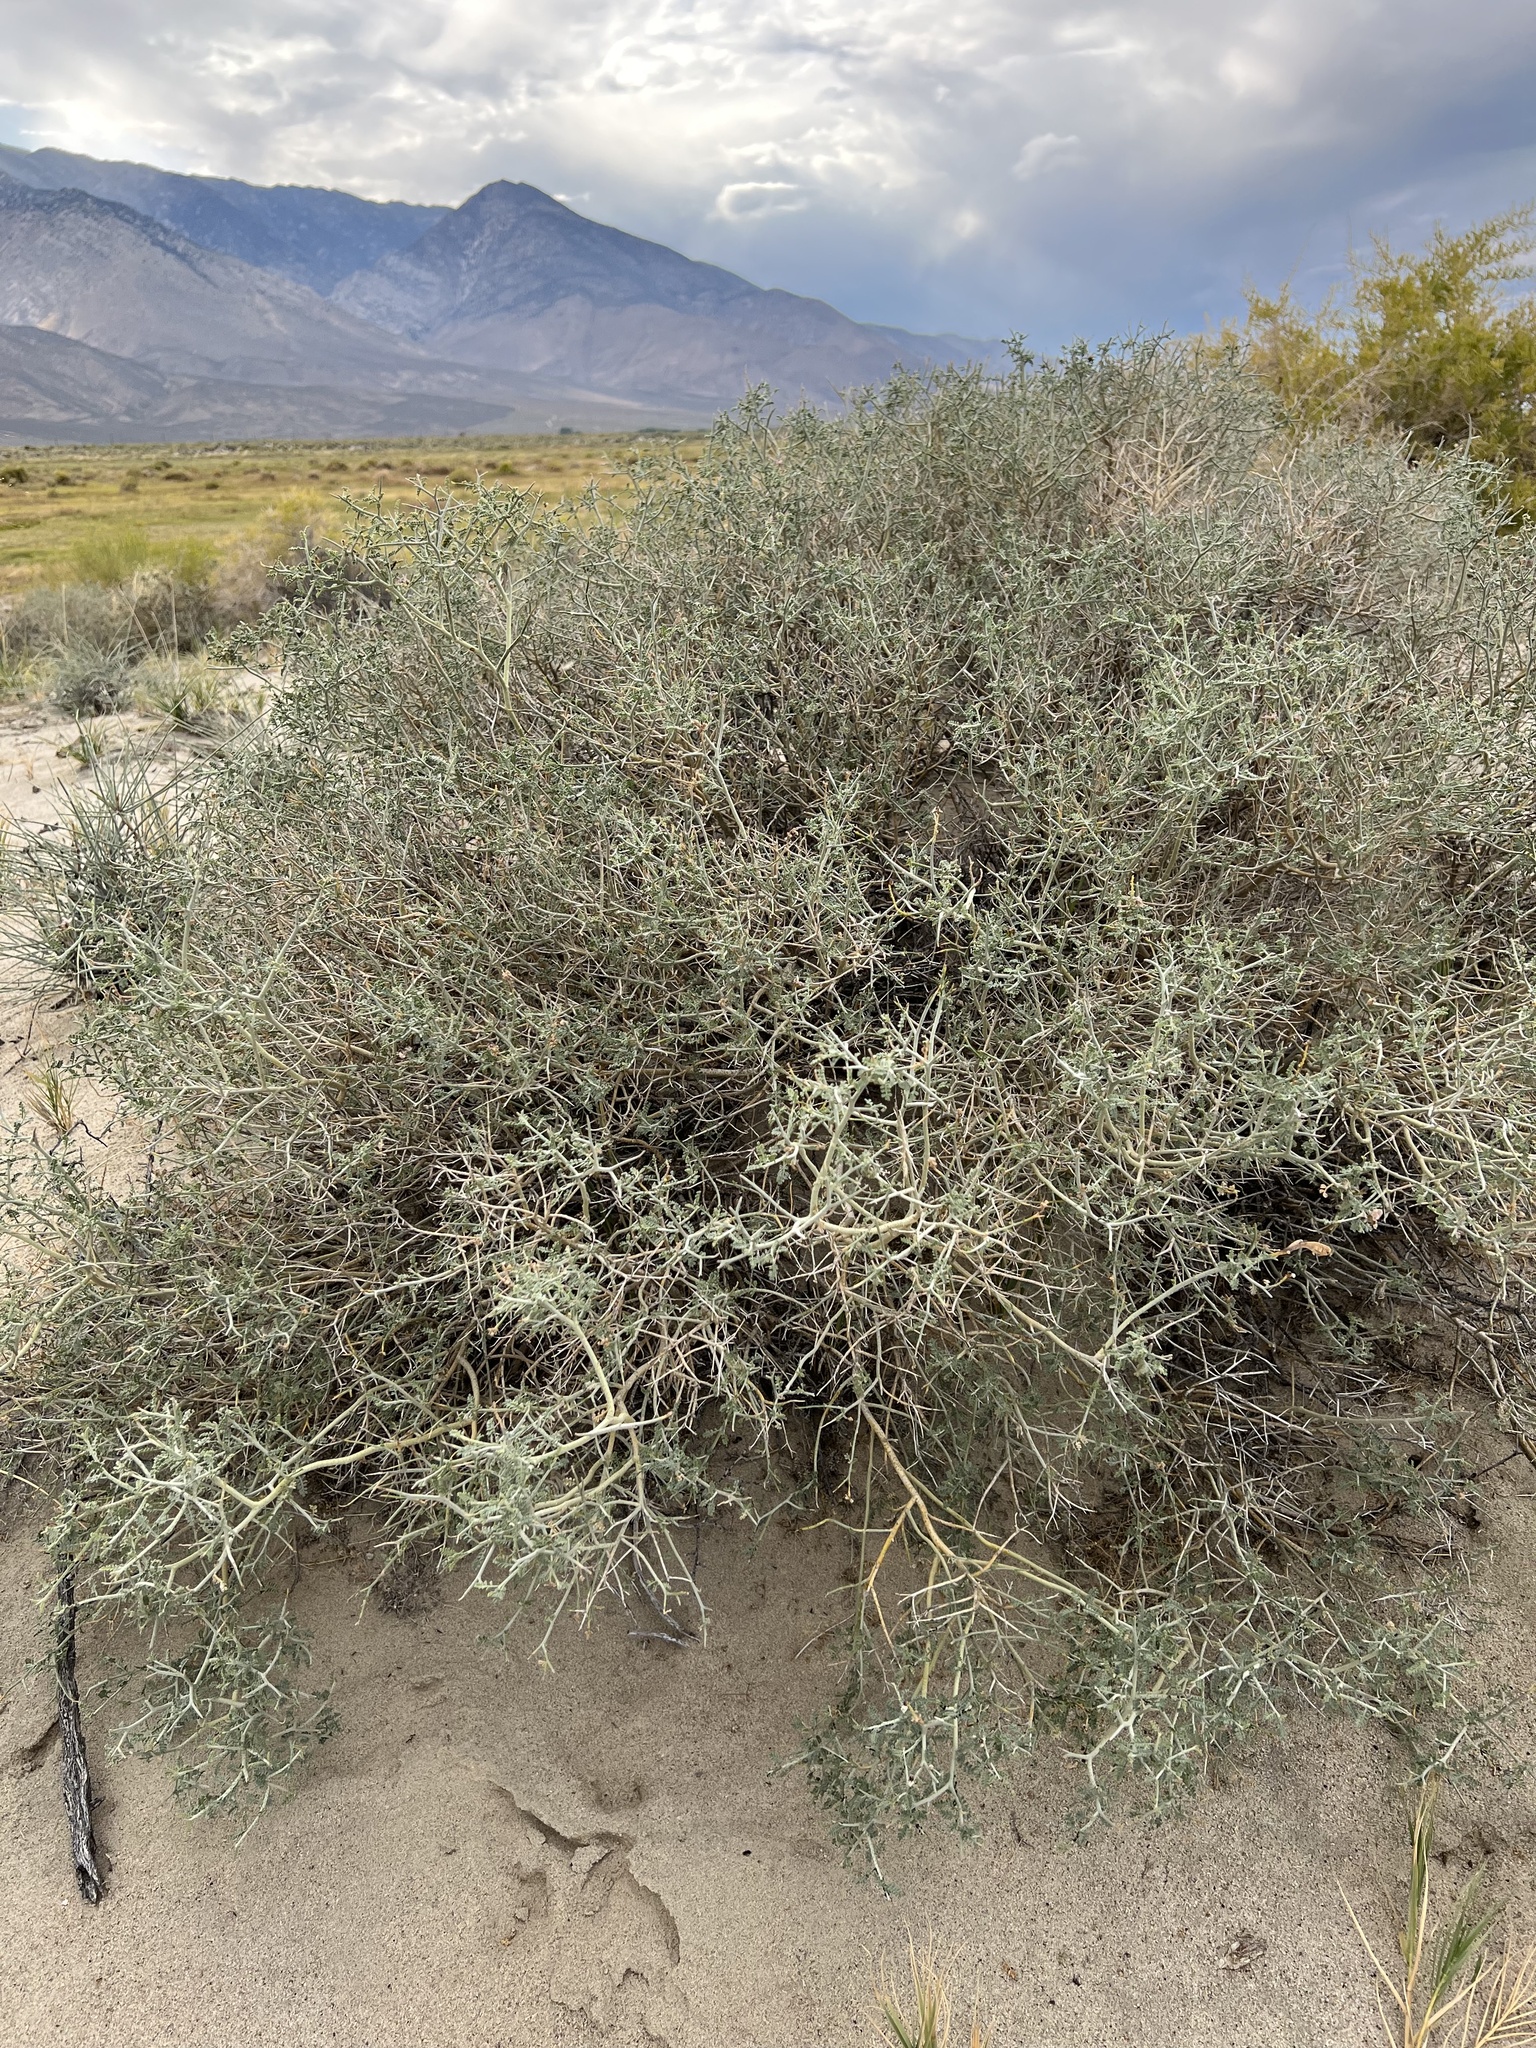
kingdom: Plantae
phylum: Tracheophyta
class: Magnoliopsida
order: Fabales
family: Fabaceae
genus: Psorothamnus
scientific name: Psorothamnus polydenius
